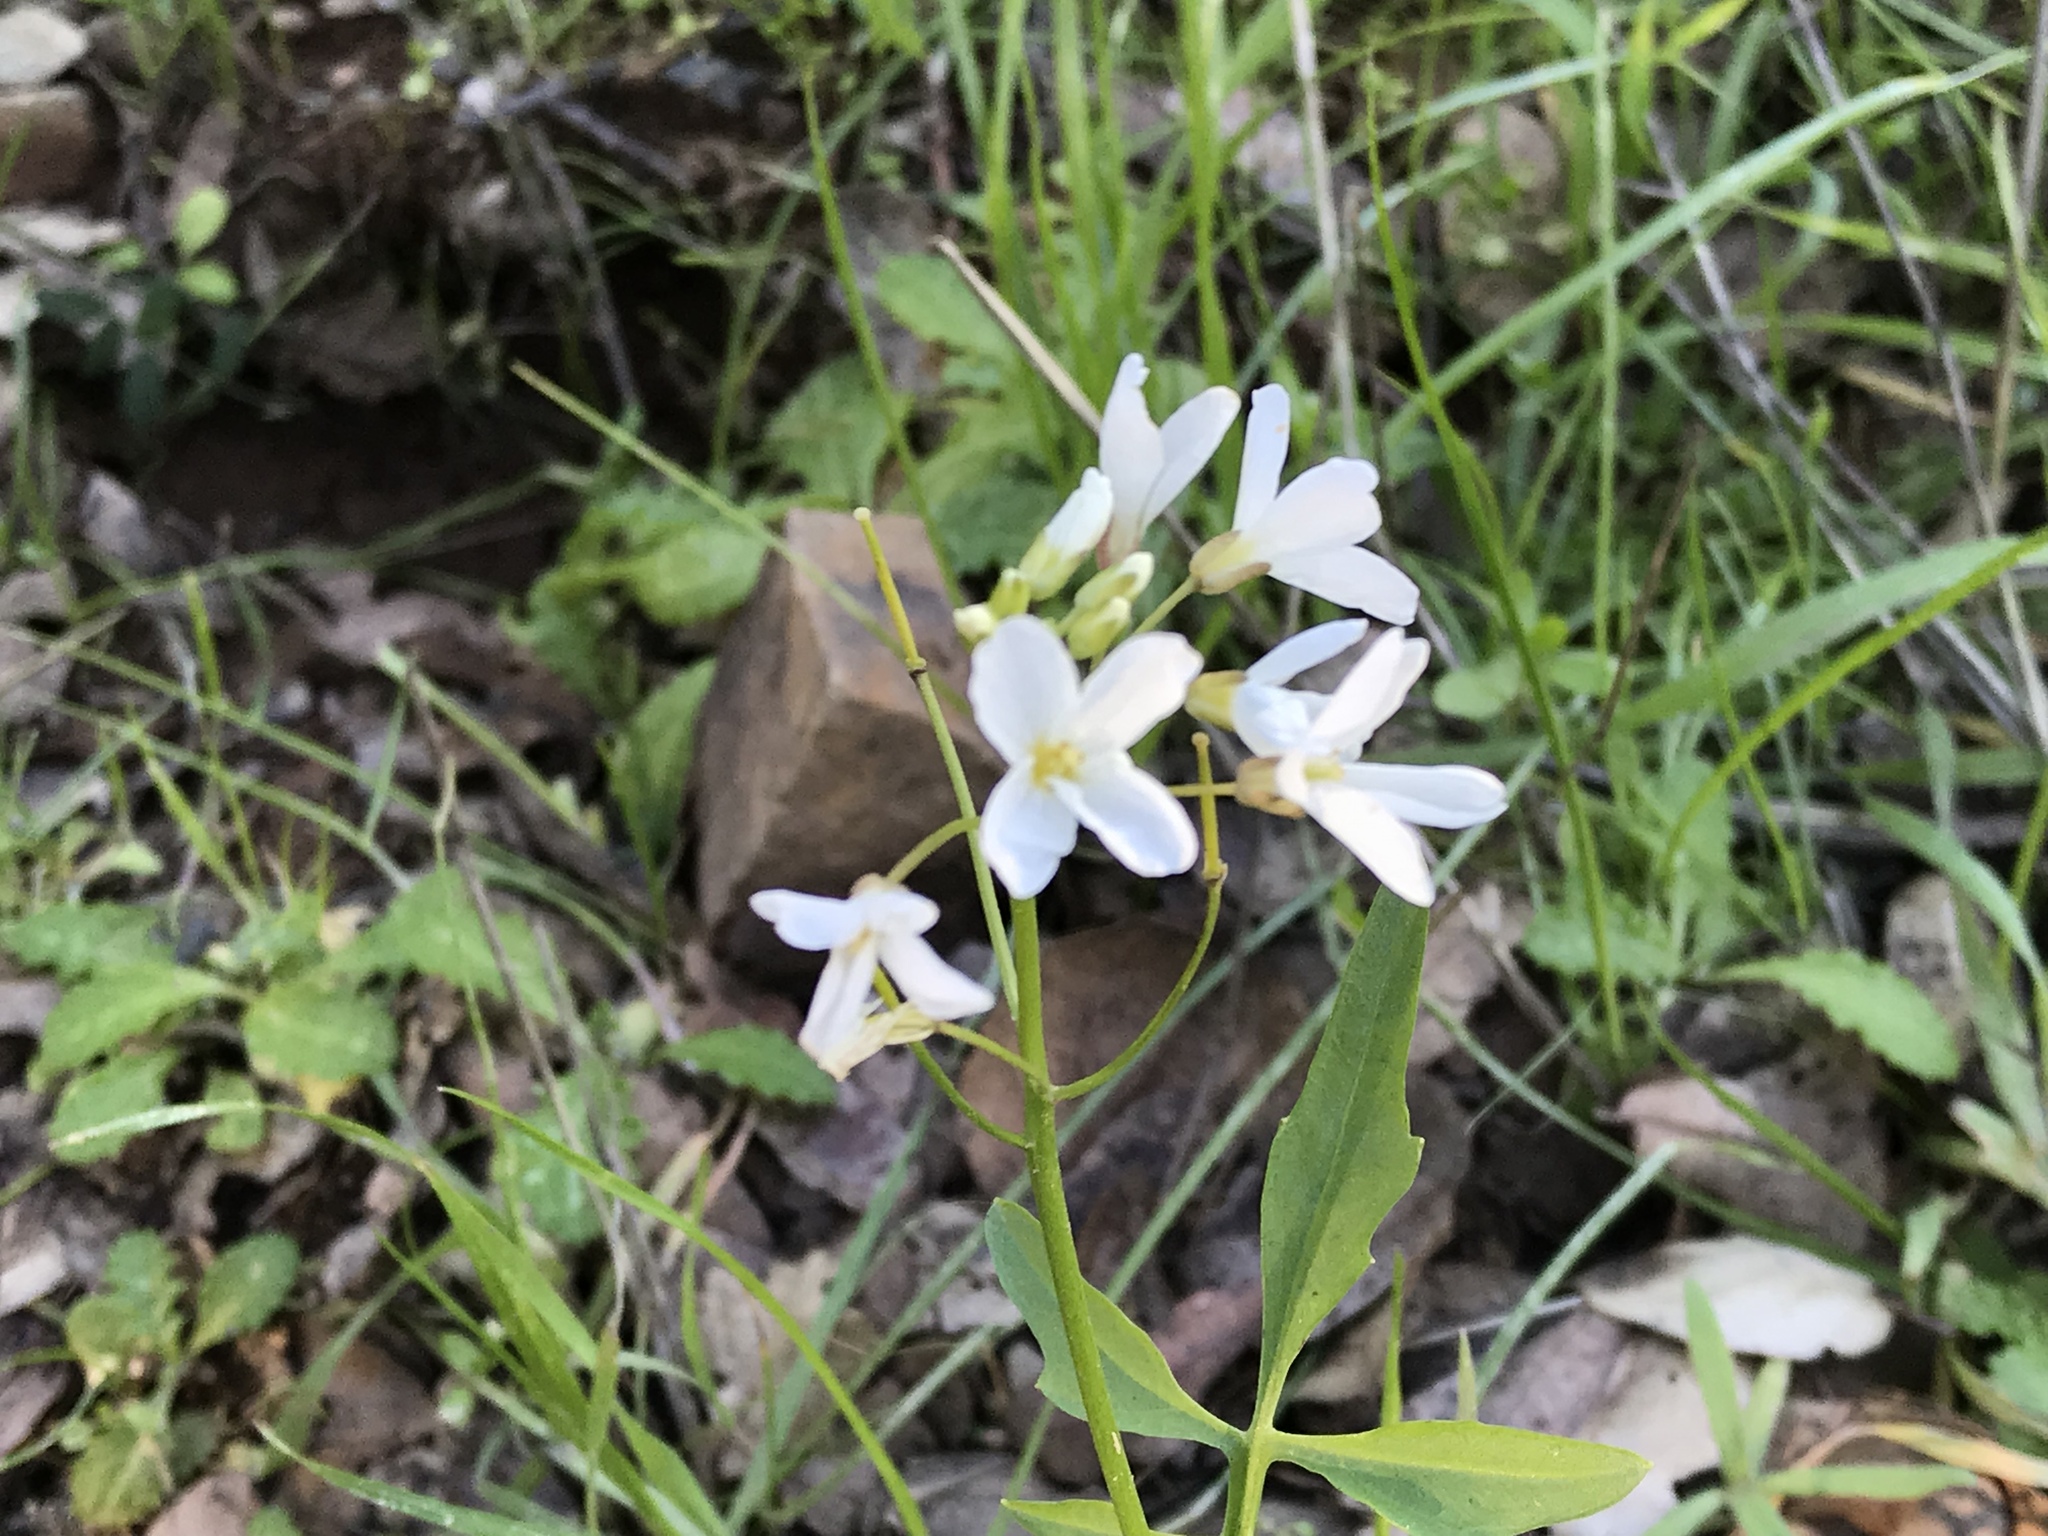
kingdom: Plantae
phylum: Tracheophyta
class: Magnoliopsida
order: Brassicales
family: Brassicaceae
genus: Cardamine
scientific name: Cardamine californica
